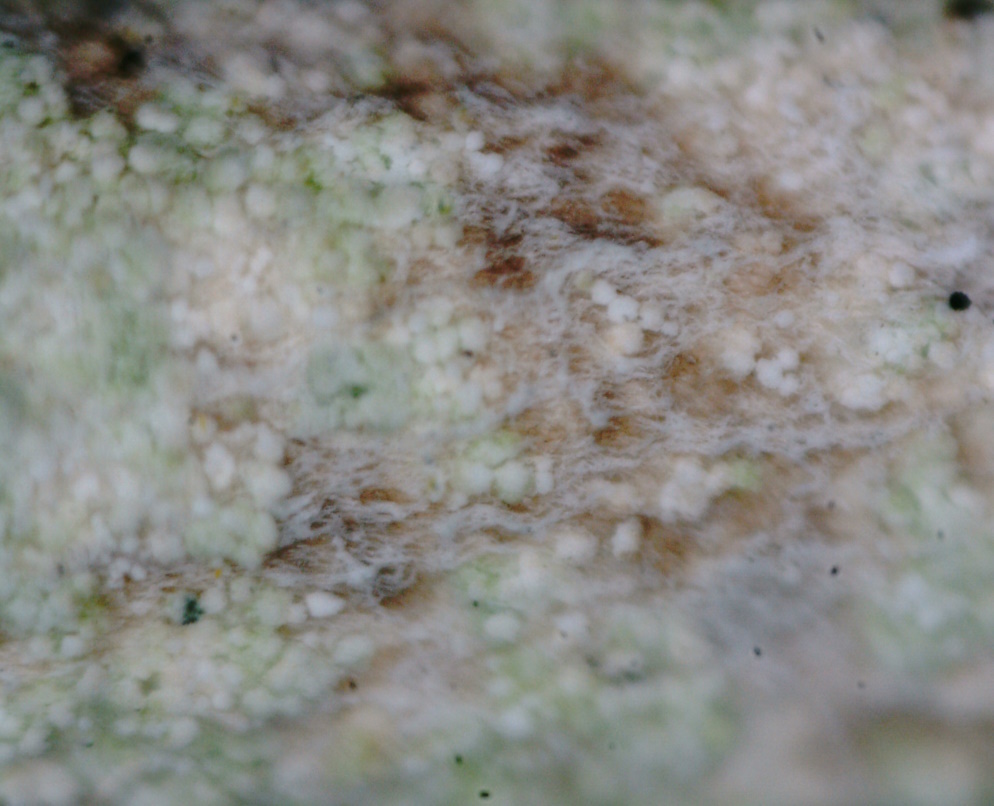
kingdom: Fungi
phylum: Ascomycota
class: Lecanoromycetes
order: Lecanorales
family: Cladoniaceae
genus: Cladonia
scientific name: Cladonia rei
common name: Wand lichen
